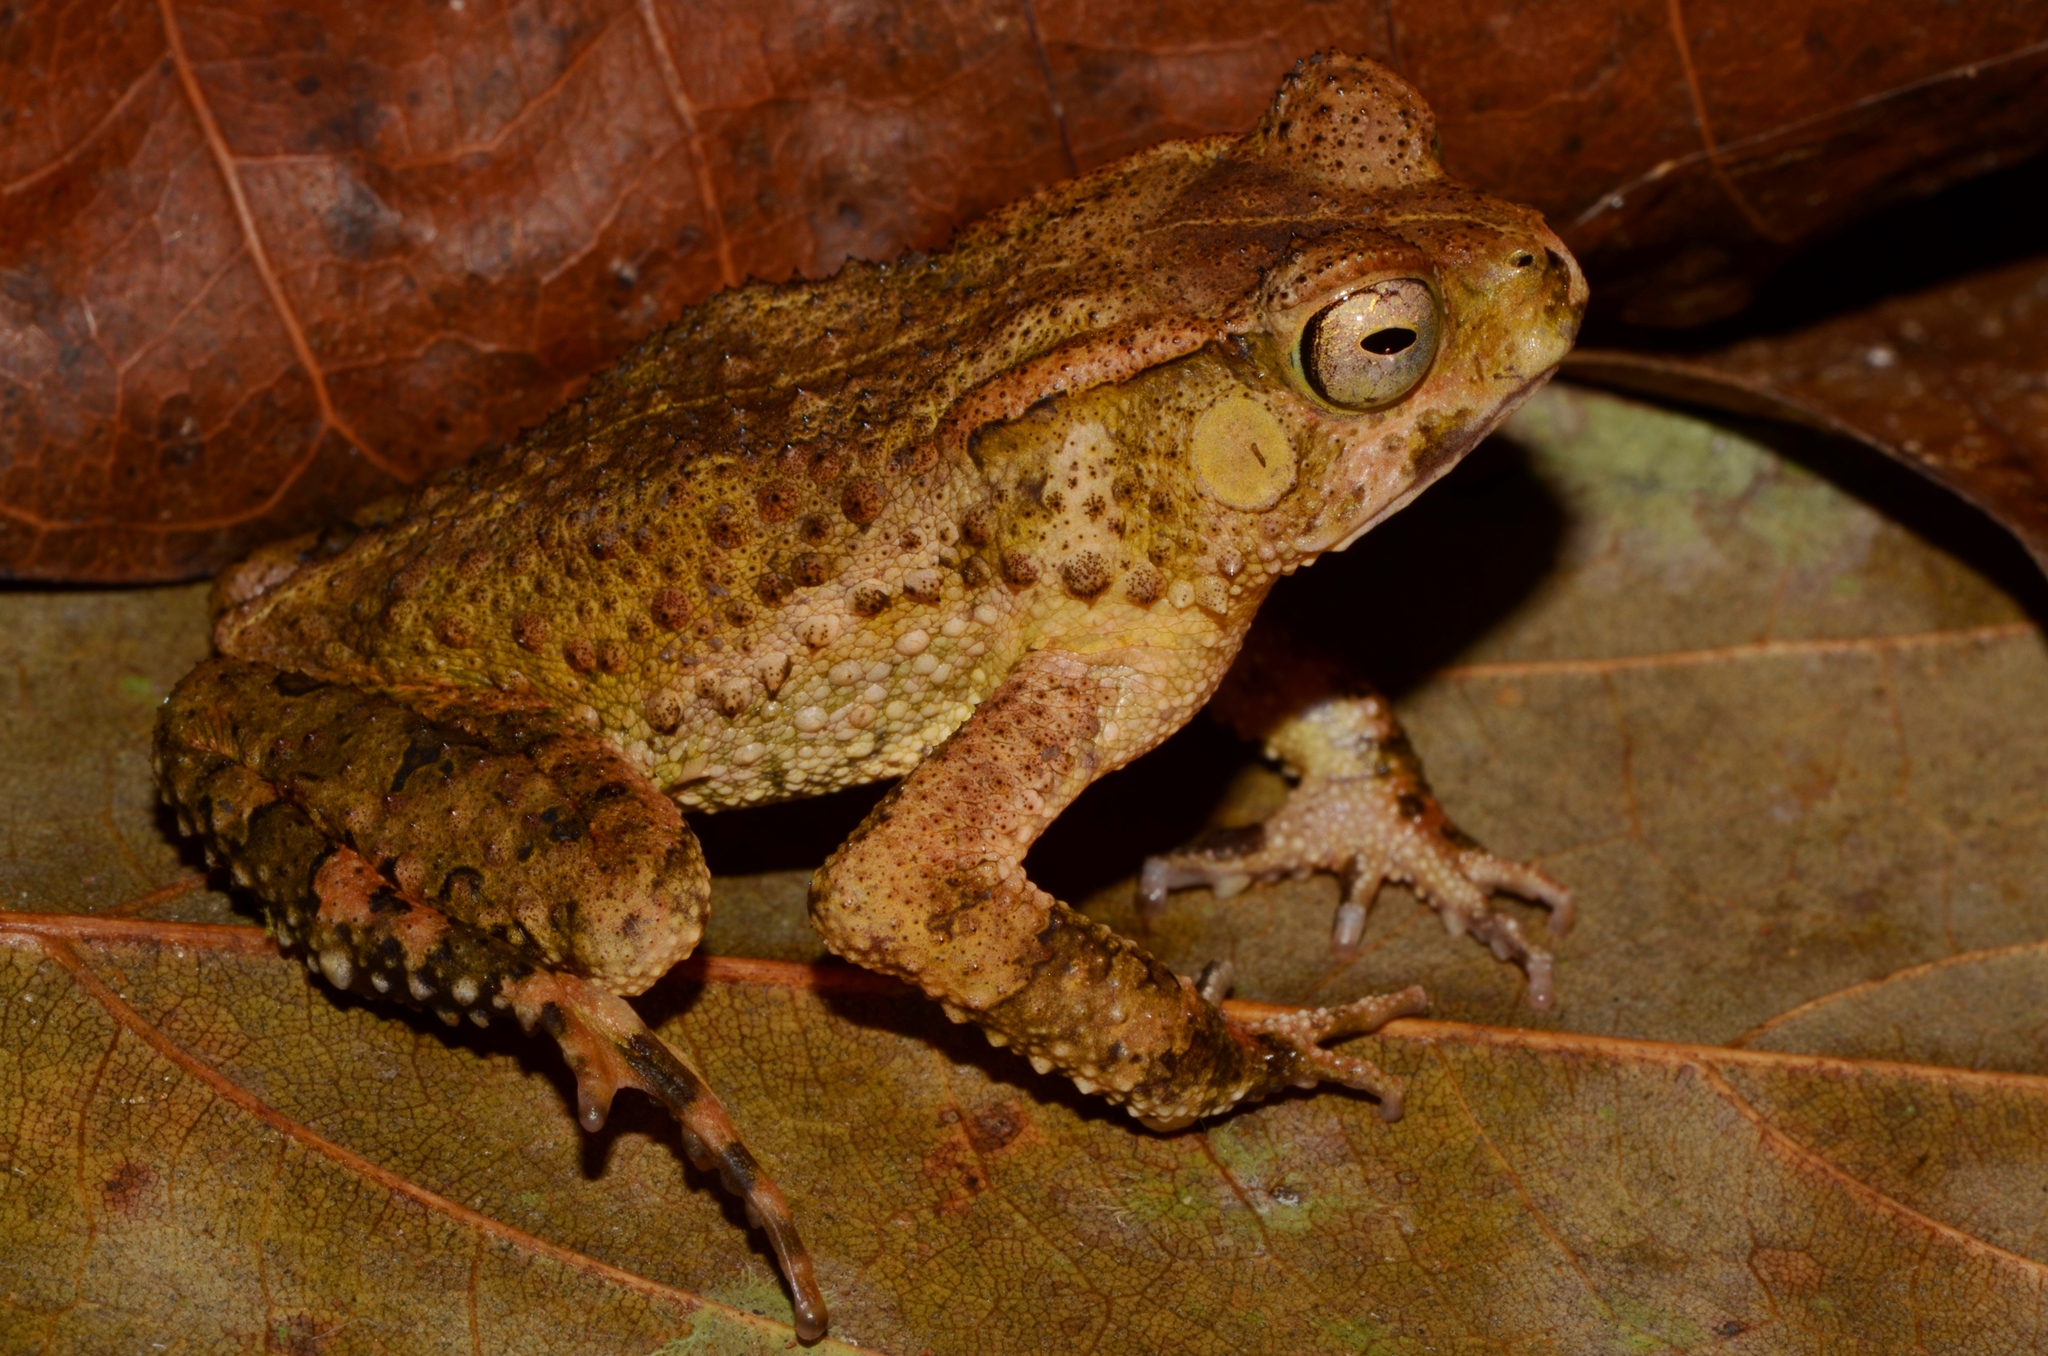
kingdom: Animalia
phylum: Chordata
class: Amphibia
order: Anura
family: Bufonidae
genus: Sclerophrys
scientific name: Sclerophrys camerunensis
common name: Cameroon toad
